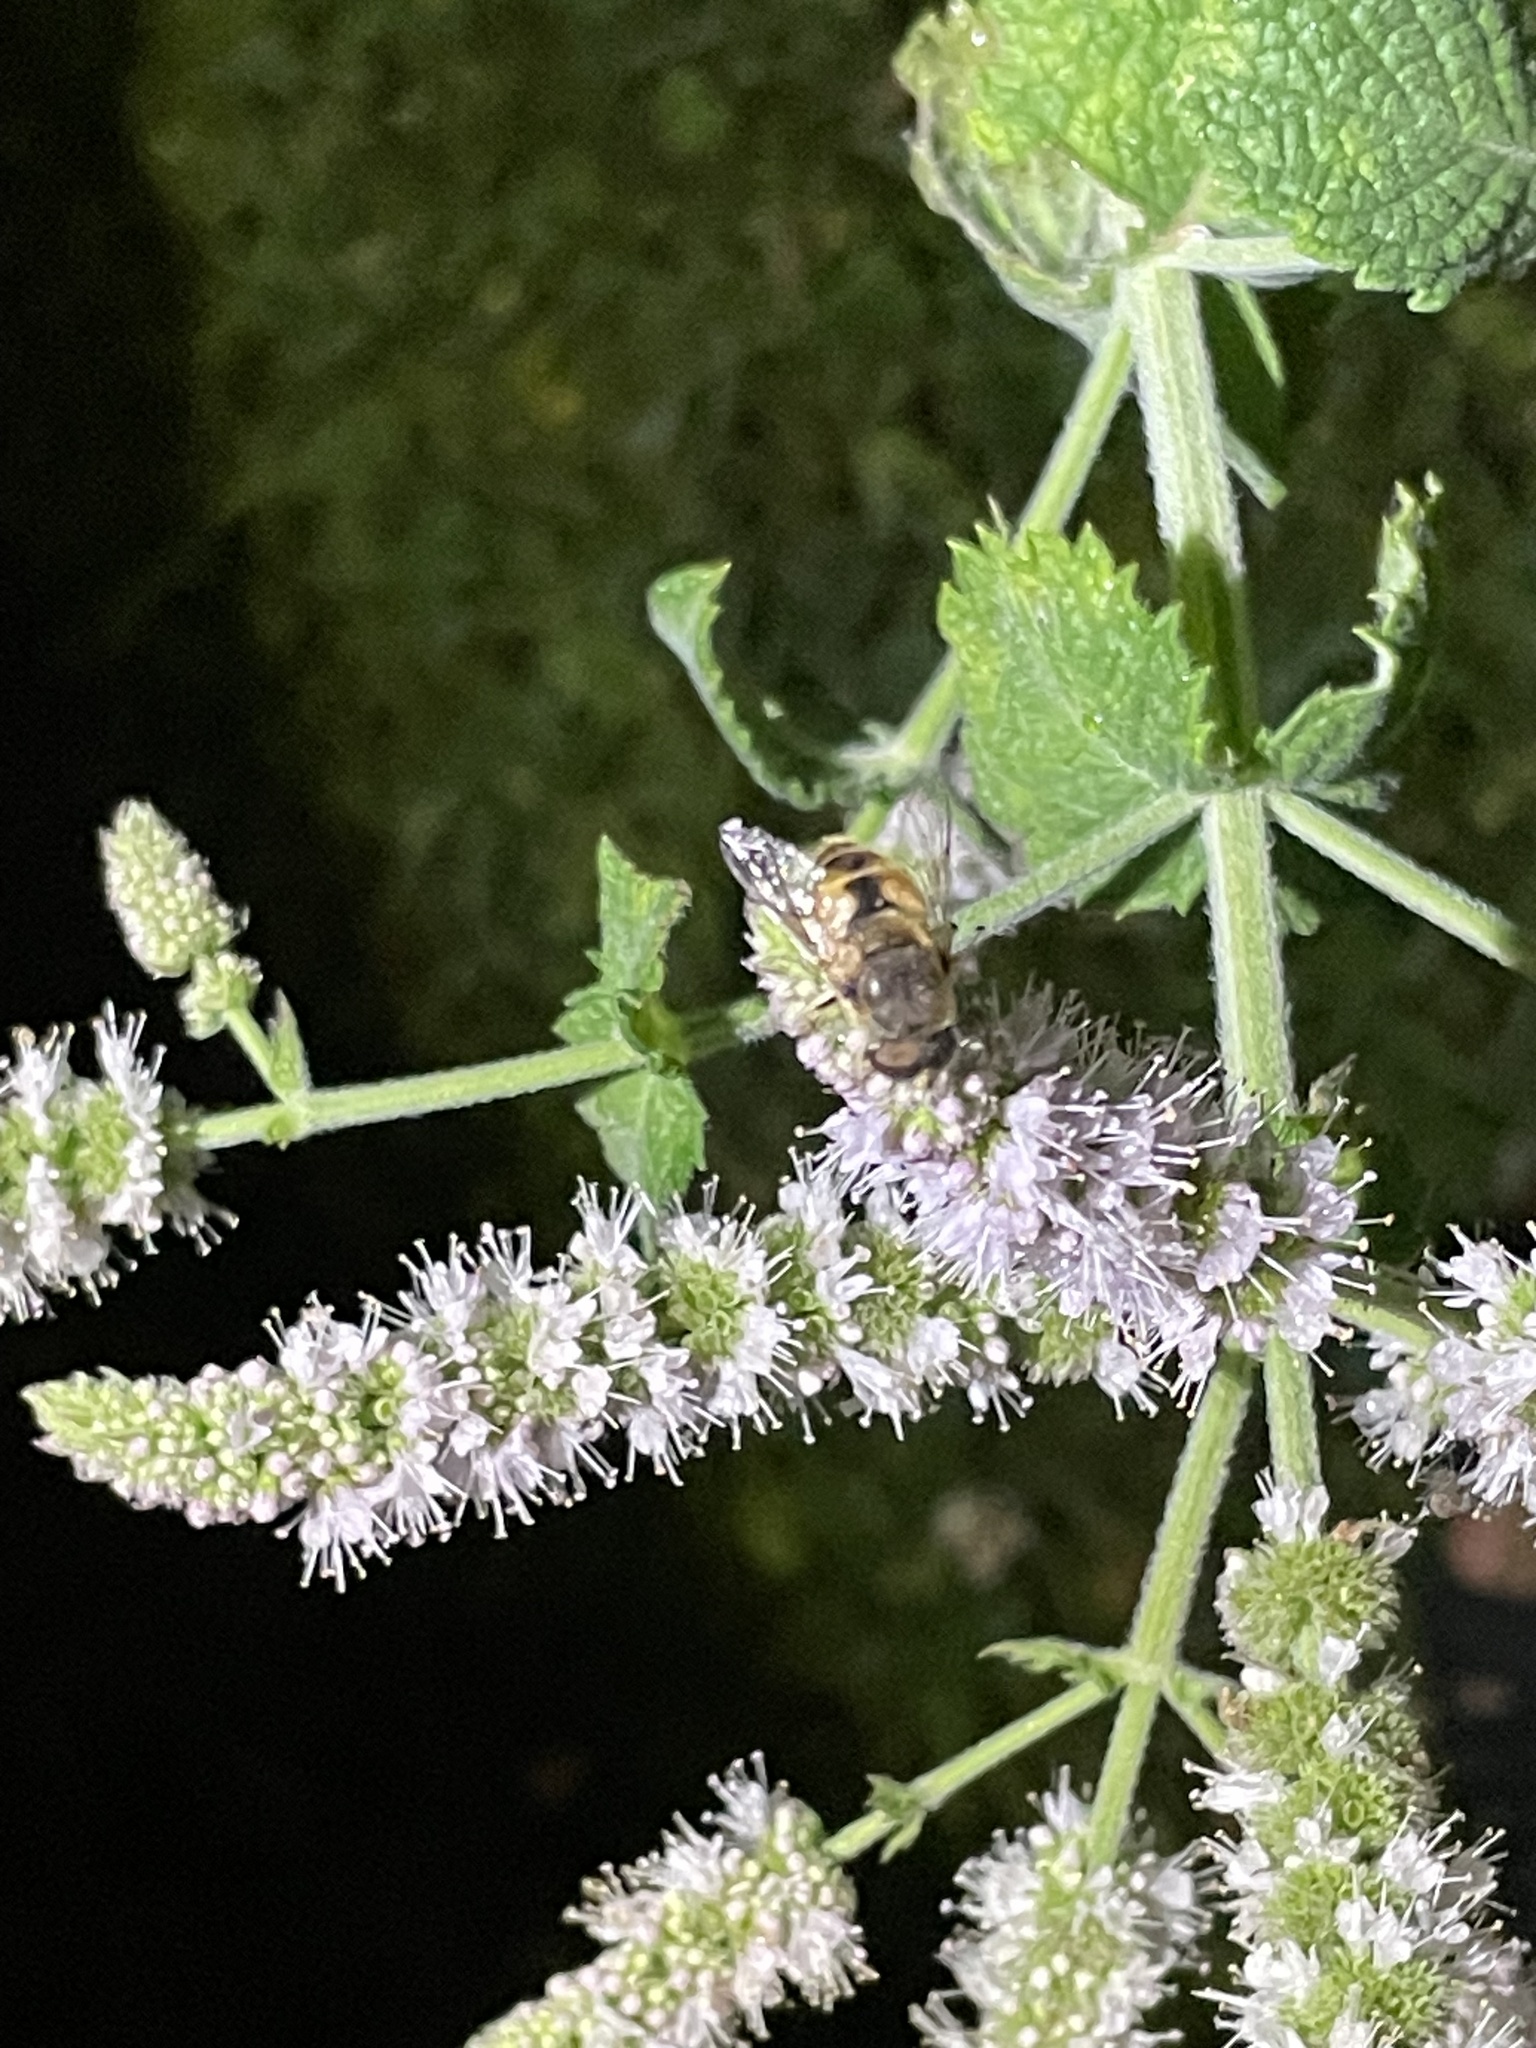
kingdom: Animalia
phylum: Arthropoda
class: Insecta
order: Diptera
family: Syrphidae
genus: Eristalis
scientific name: Eristalis arbustorum
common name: Hover fly
